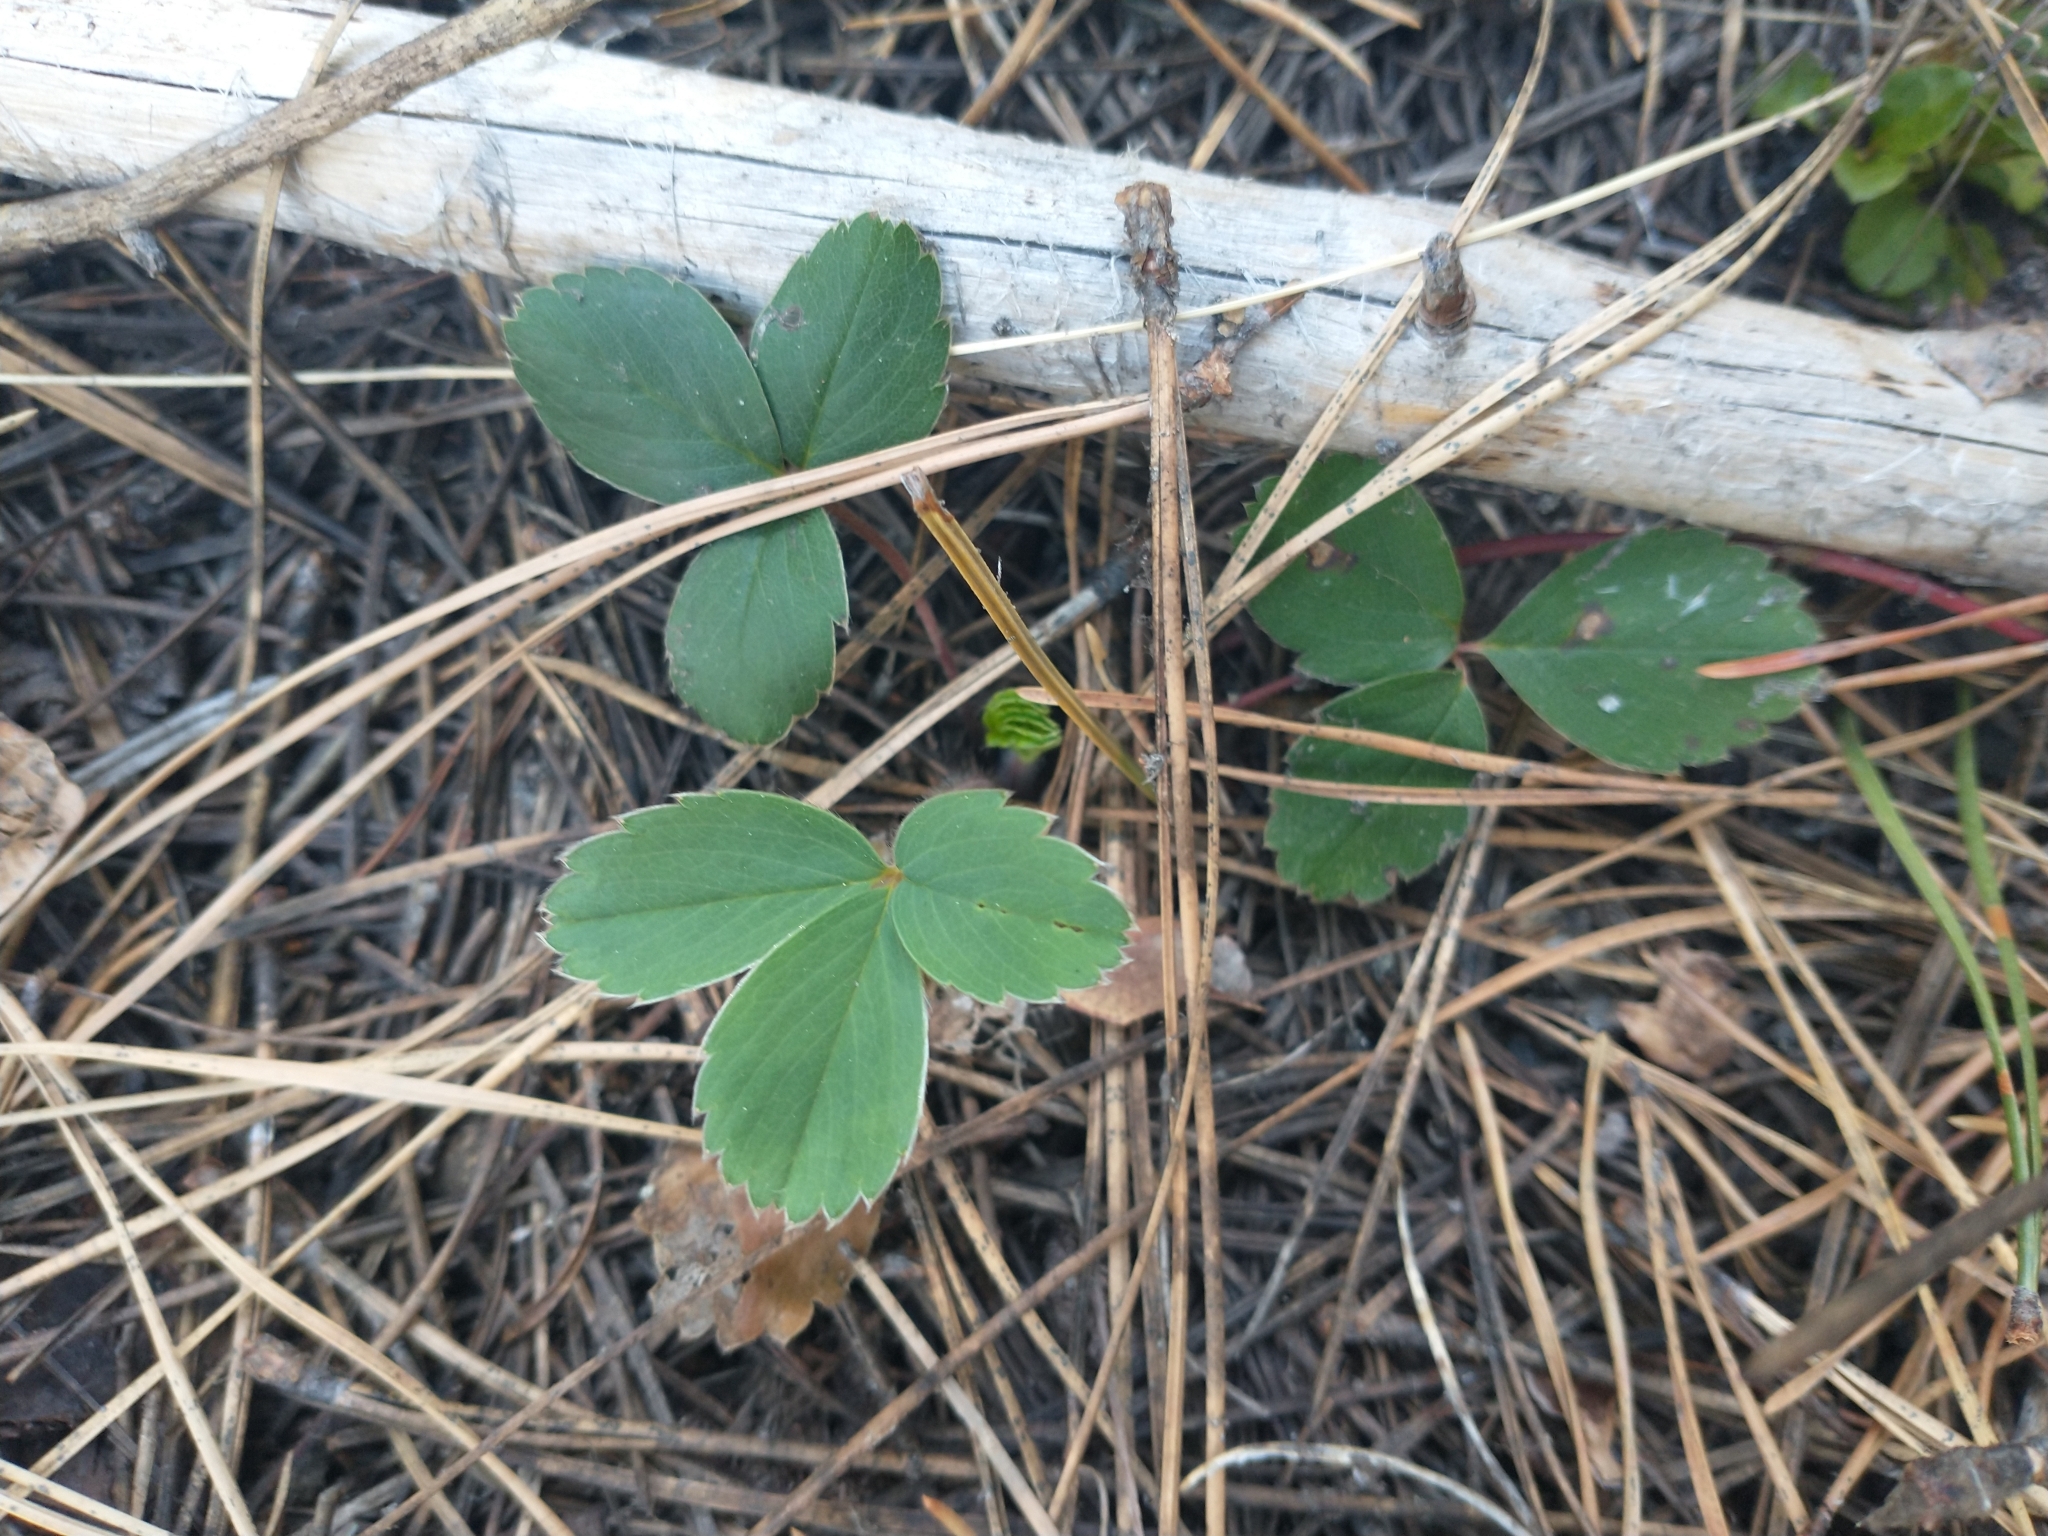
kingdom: Plantae
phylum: Tracheophyta
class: Magnoliopsida
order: Rosales
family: Rosaceae
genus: Fragaria
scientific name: Fragaria virginiana
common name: Thickleaved wild strawberry
